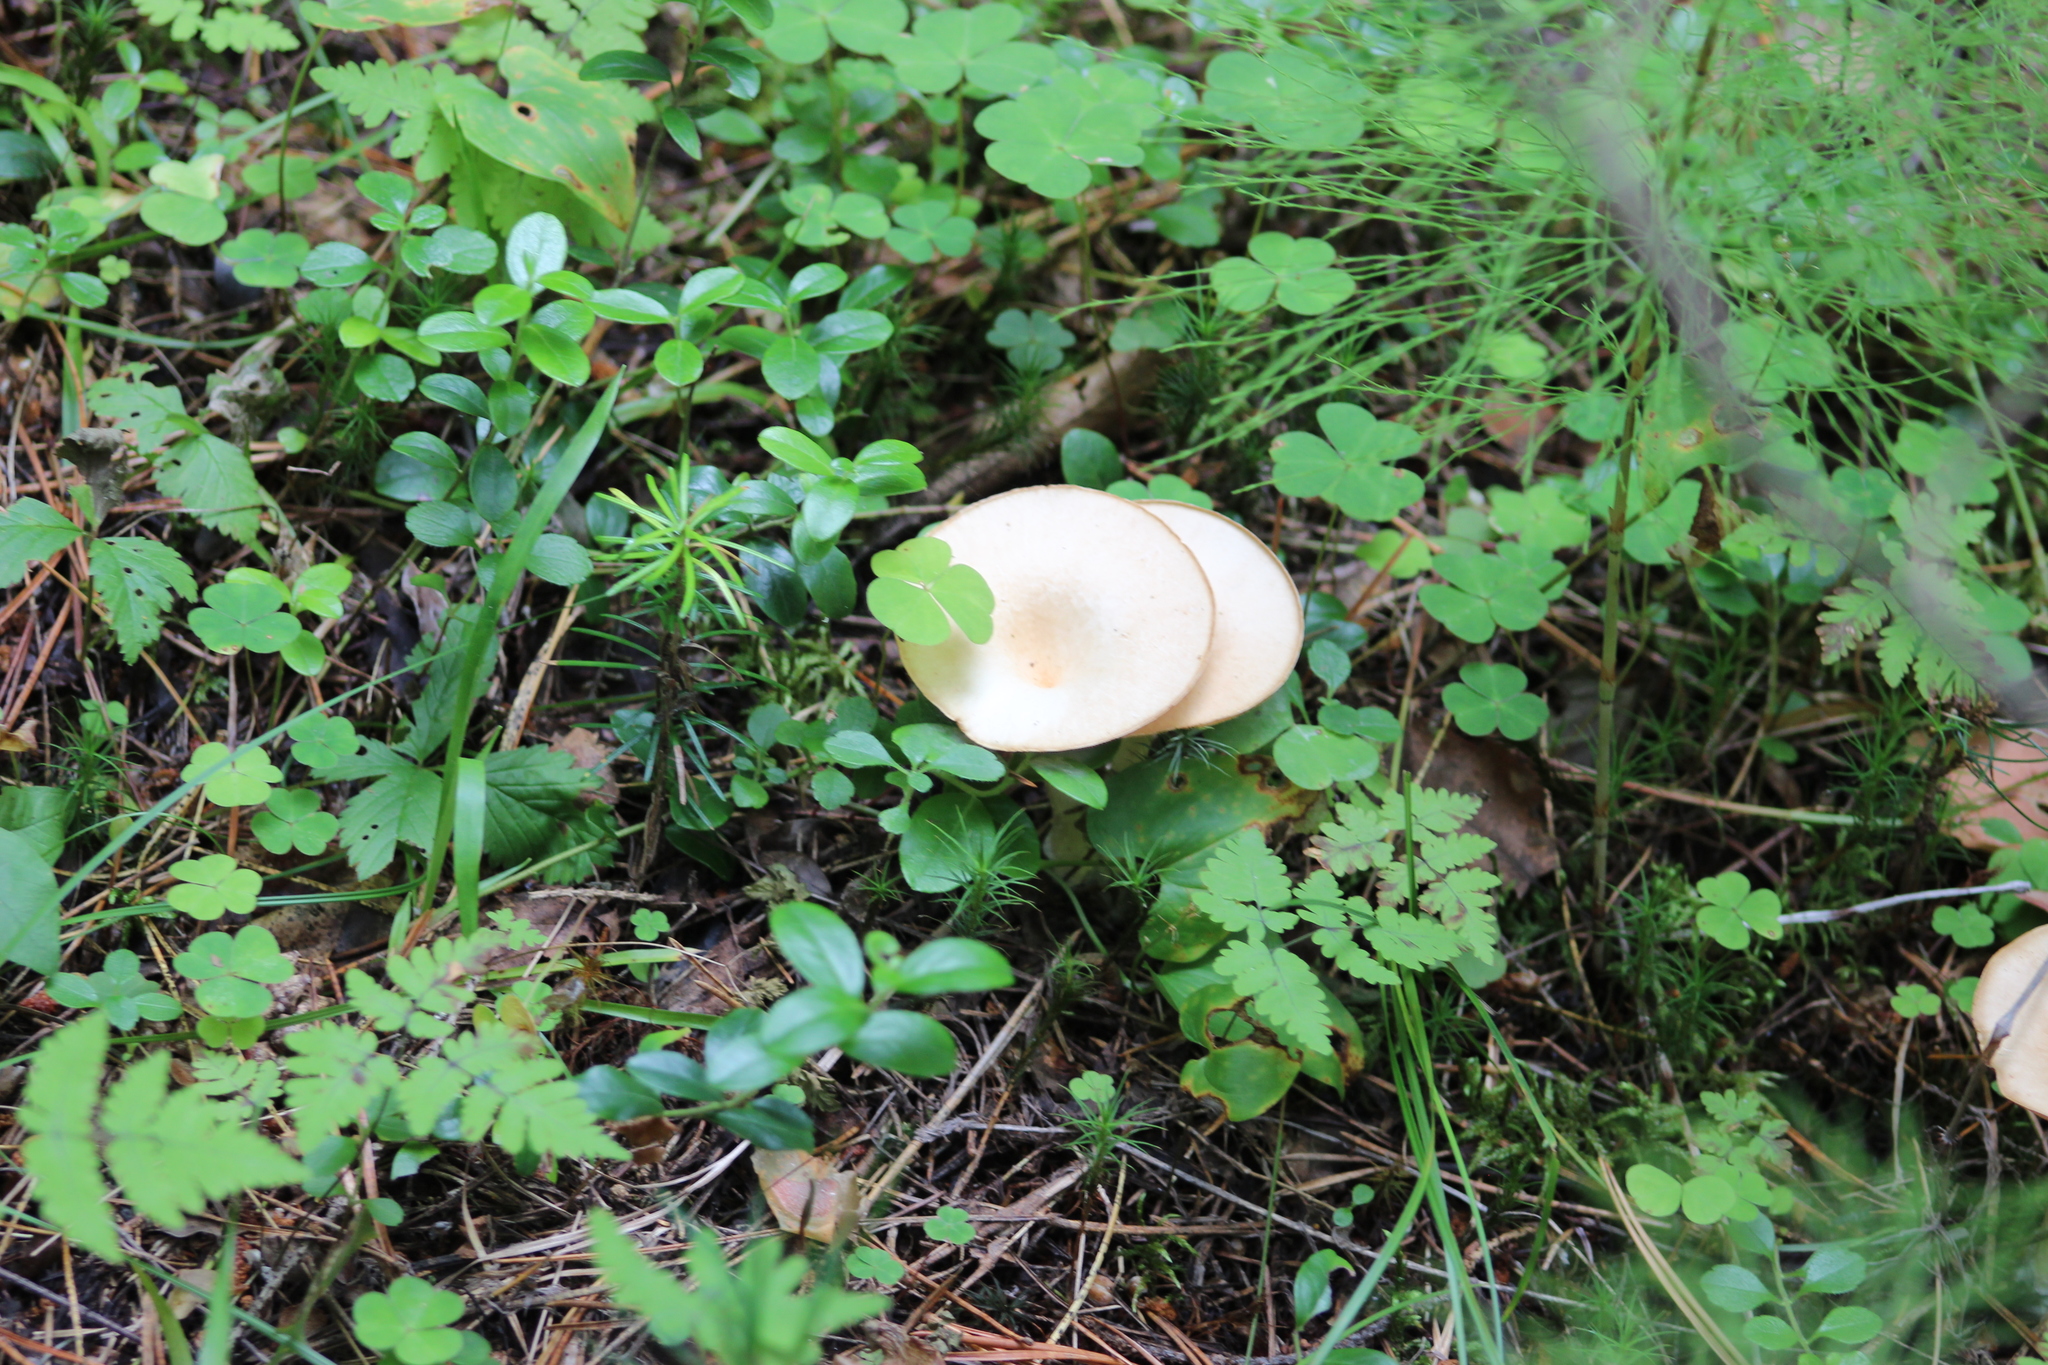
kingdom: Fungi
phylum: Basidiomycota
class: Agaricomycetes
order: Agaricales
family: Tricholomataceae
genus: Infundibulicybe
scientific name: Infundibulicybe gibba
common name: Common funnel
